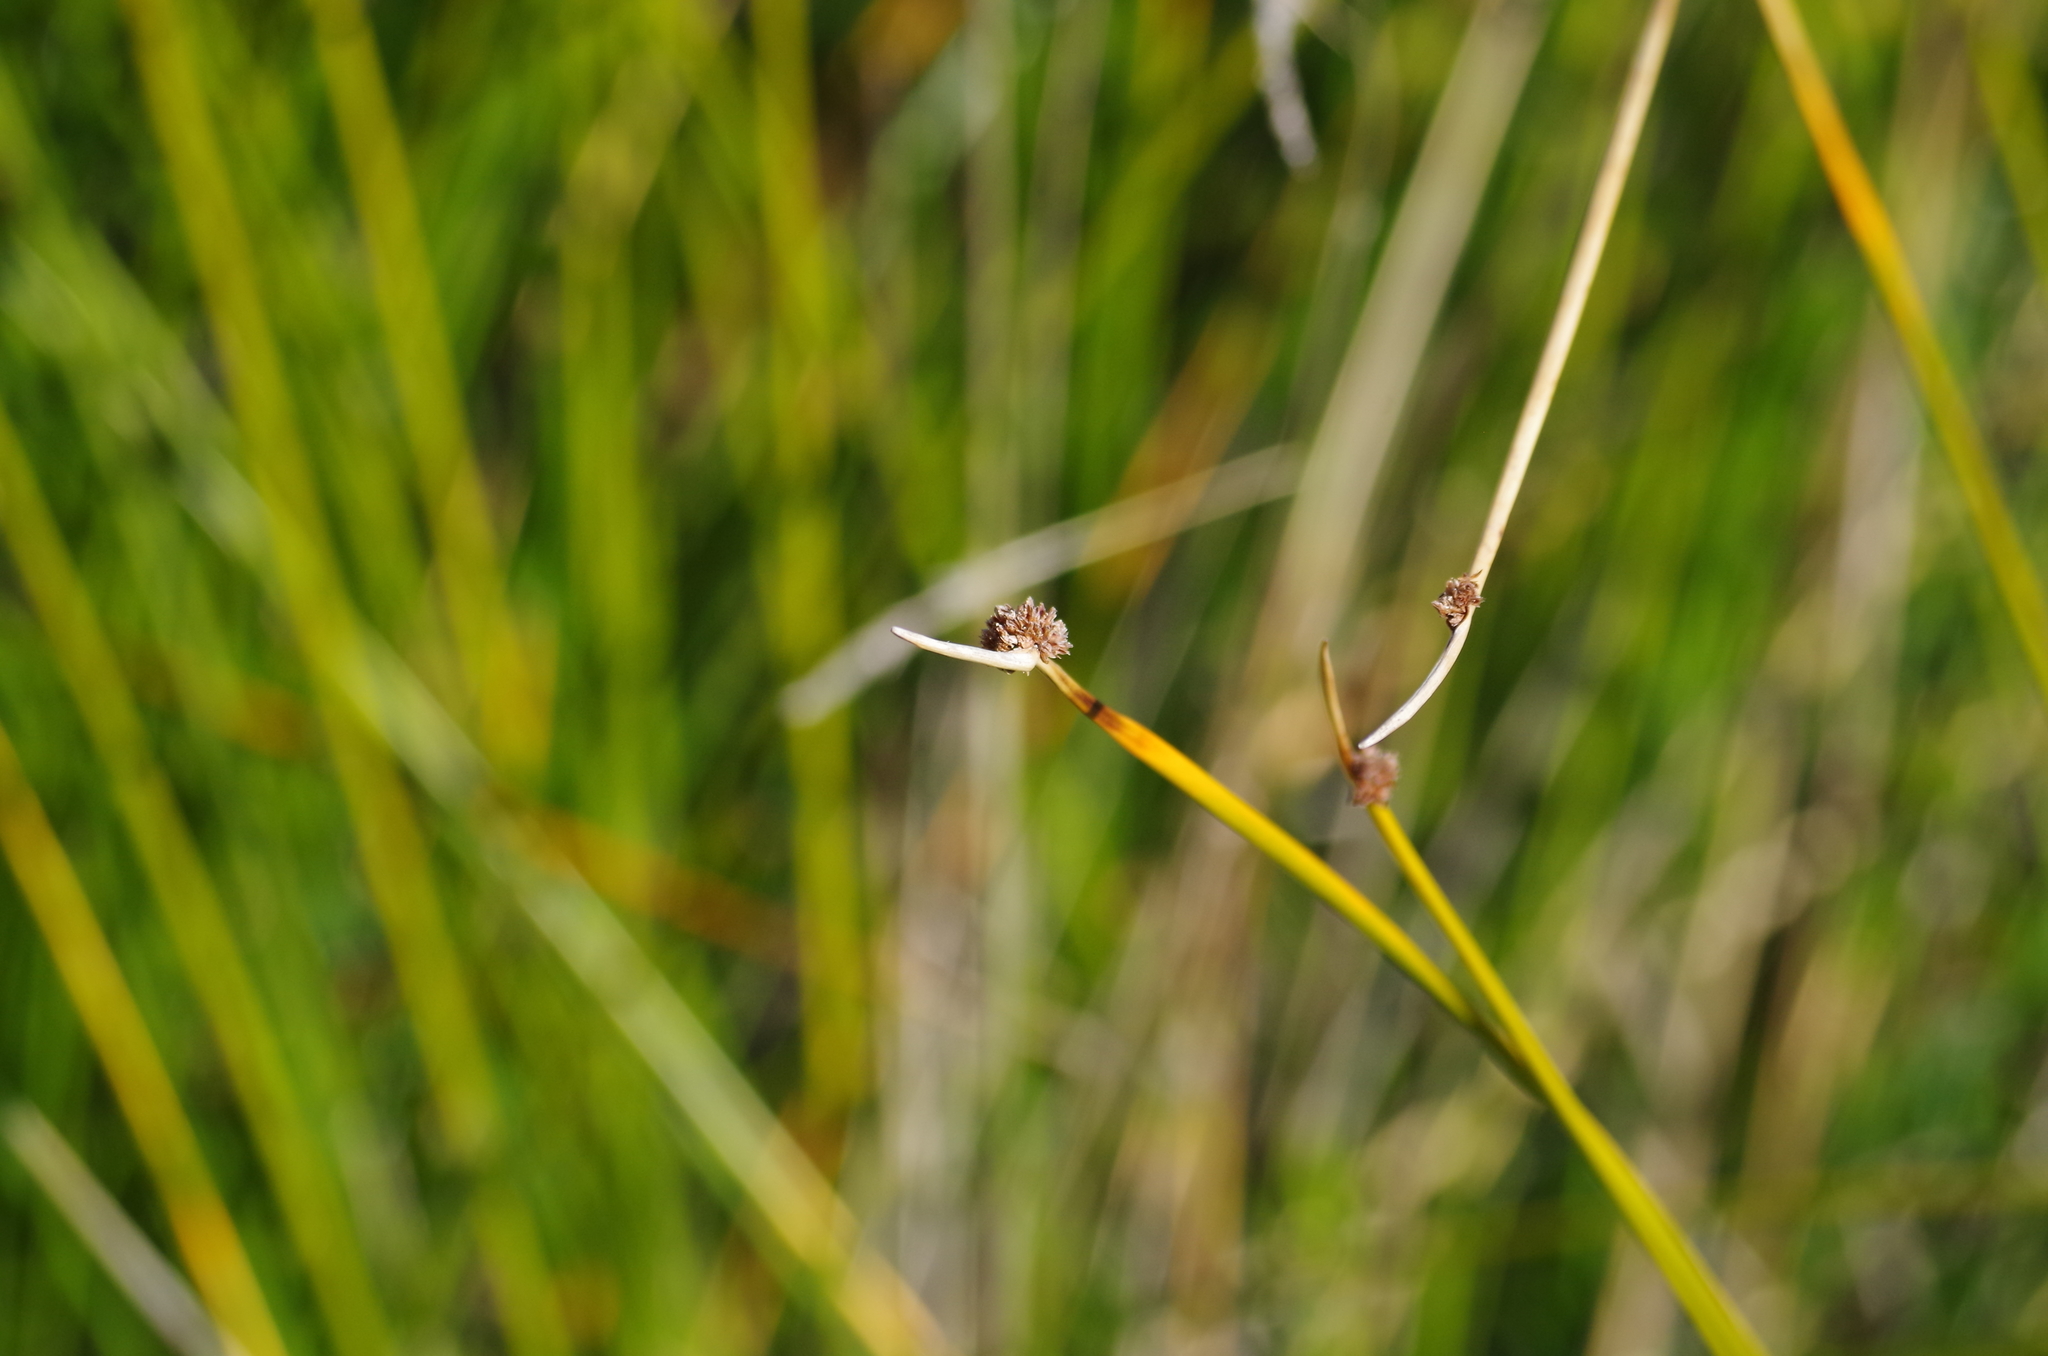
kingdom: Plantae
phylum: Tracheophyta
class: Liliopsida
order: Poales
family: Cyperaceae
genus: Ficinia
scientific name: Ficinia nodosa
